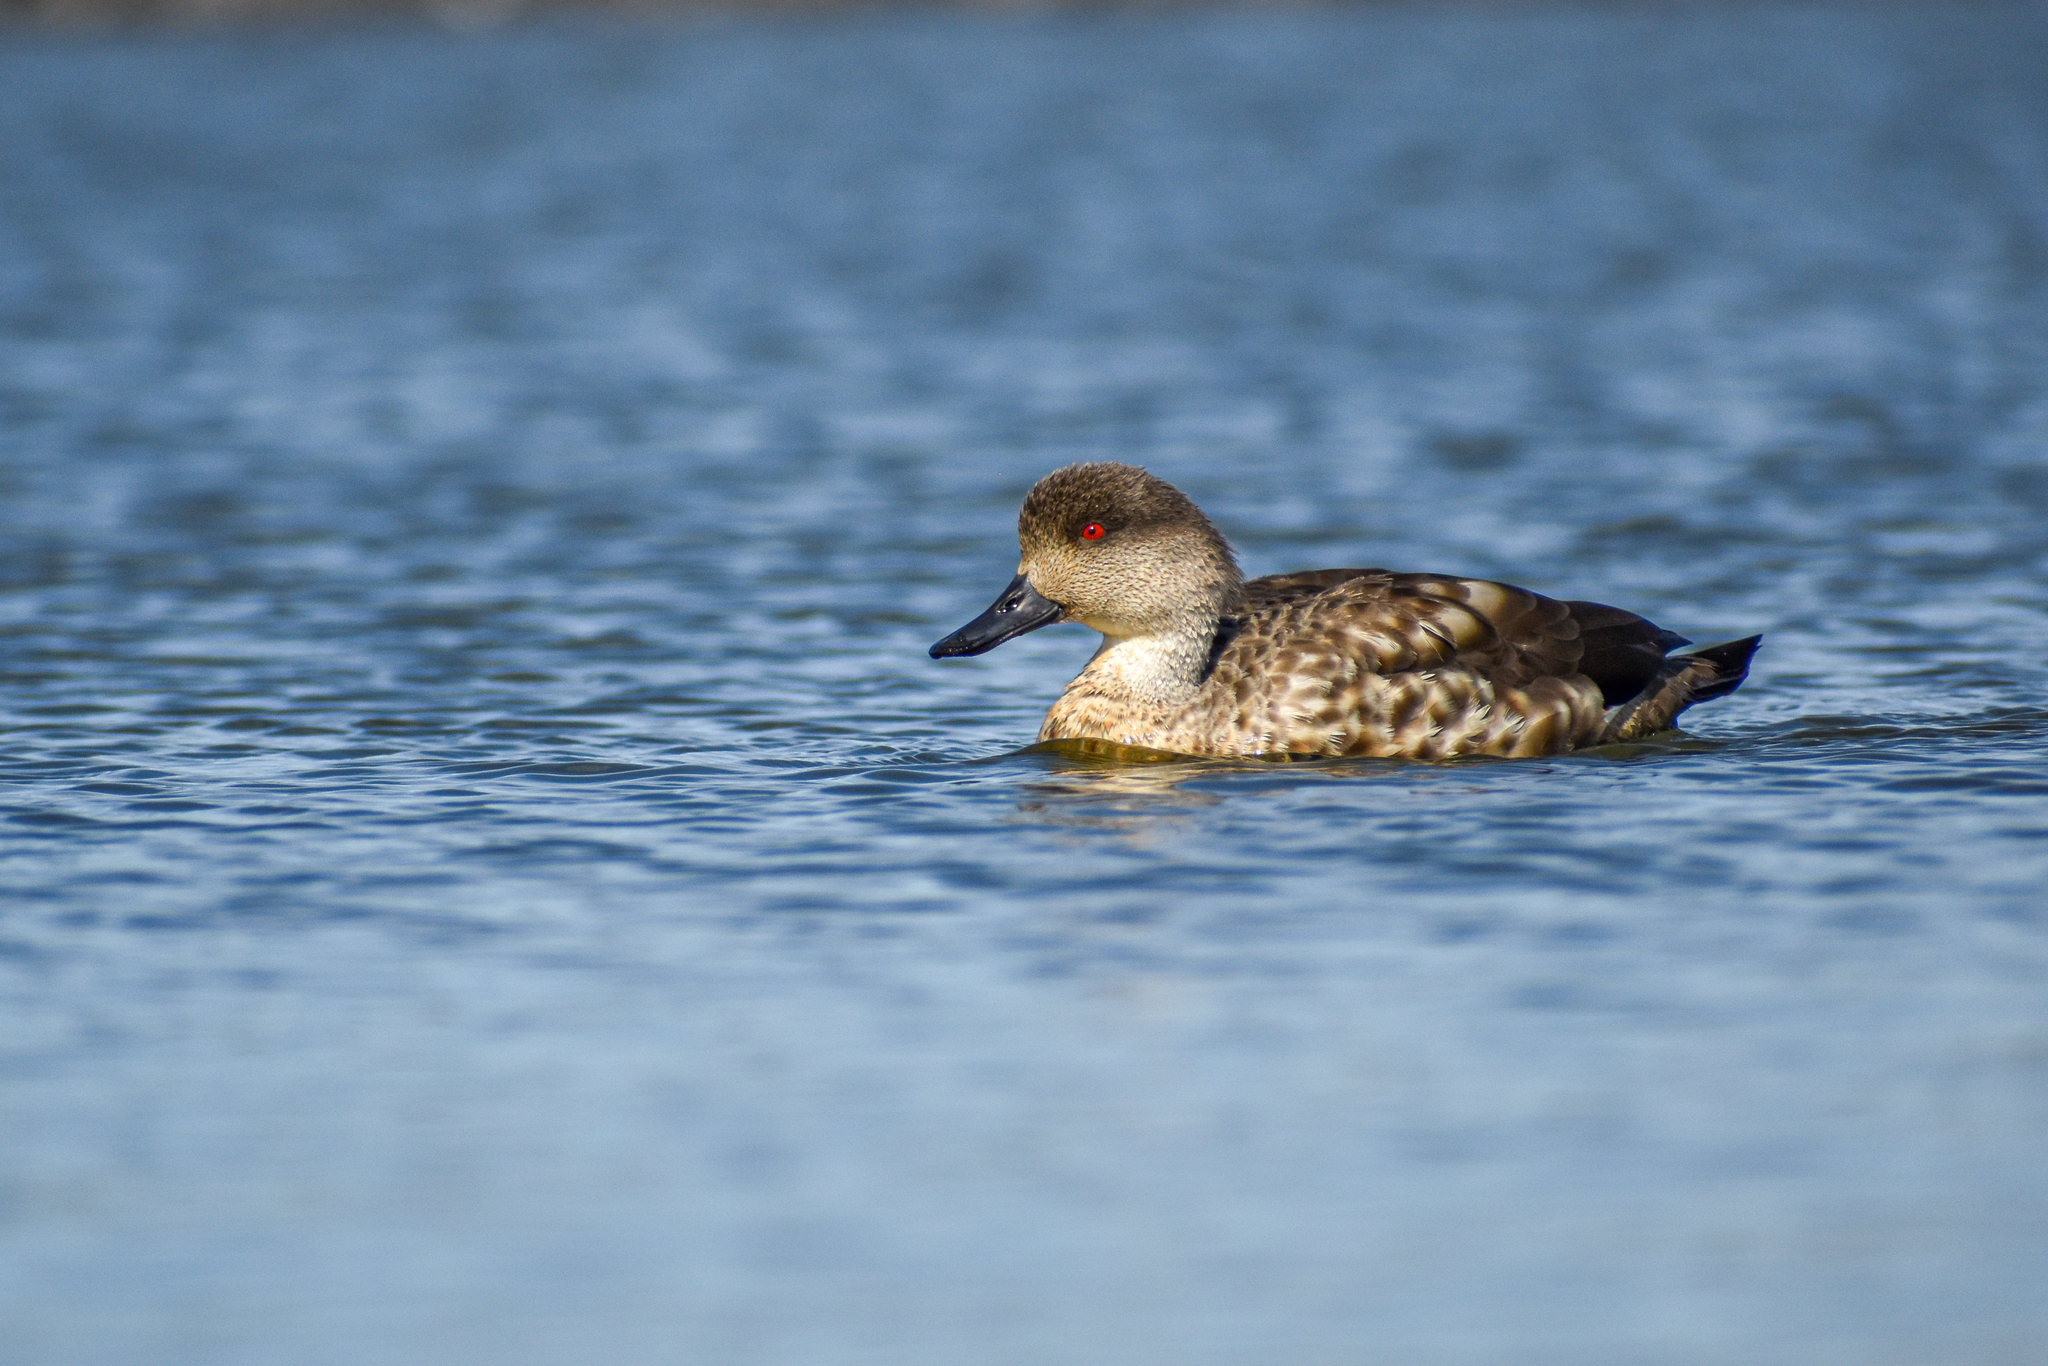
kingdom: Animalia
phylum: Chordata
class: Aves
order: Anseriformes
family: Anatidae
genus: Lophonetta
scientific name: Lophonetta specularioides
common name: Crested duck
